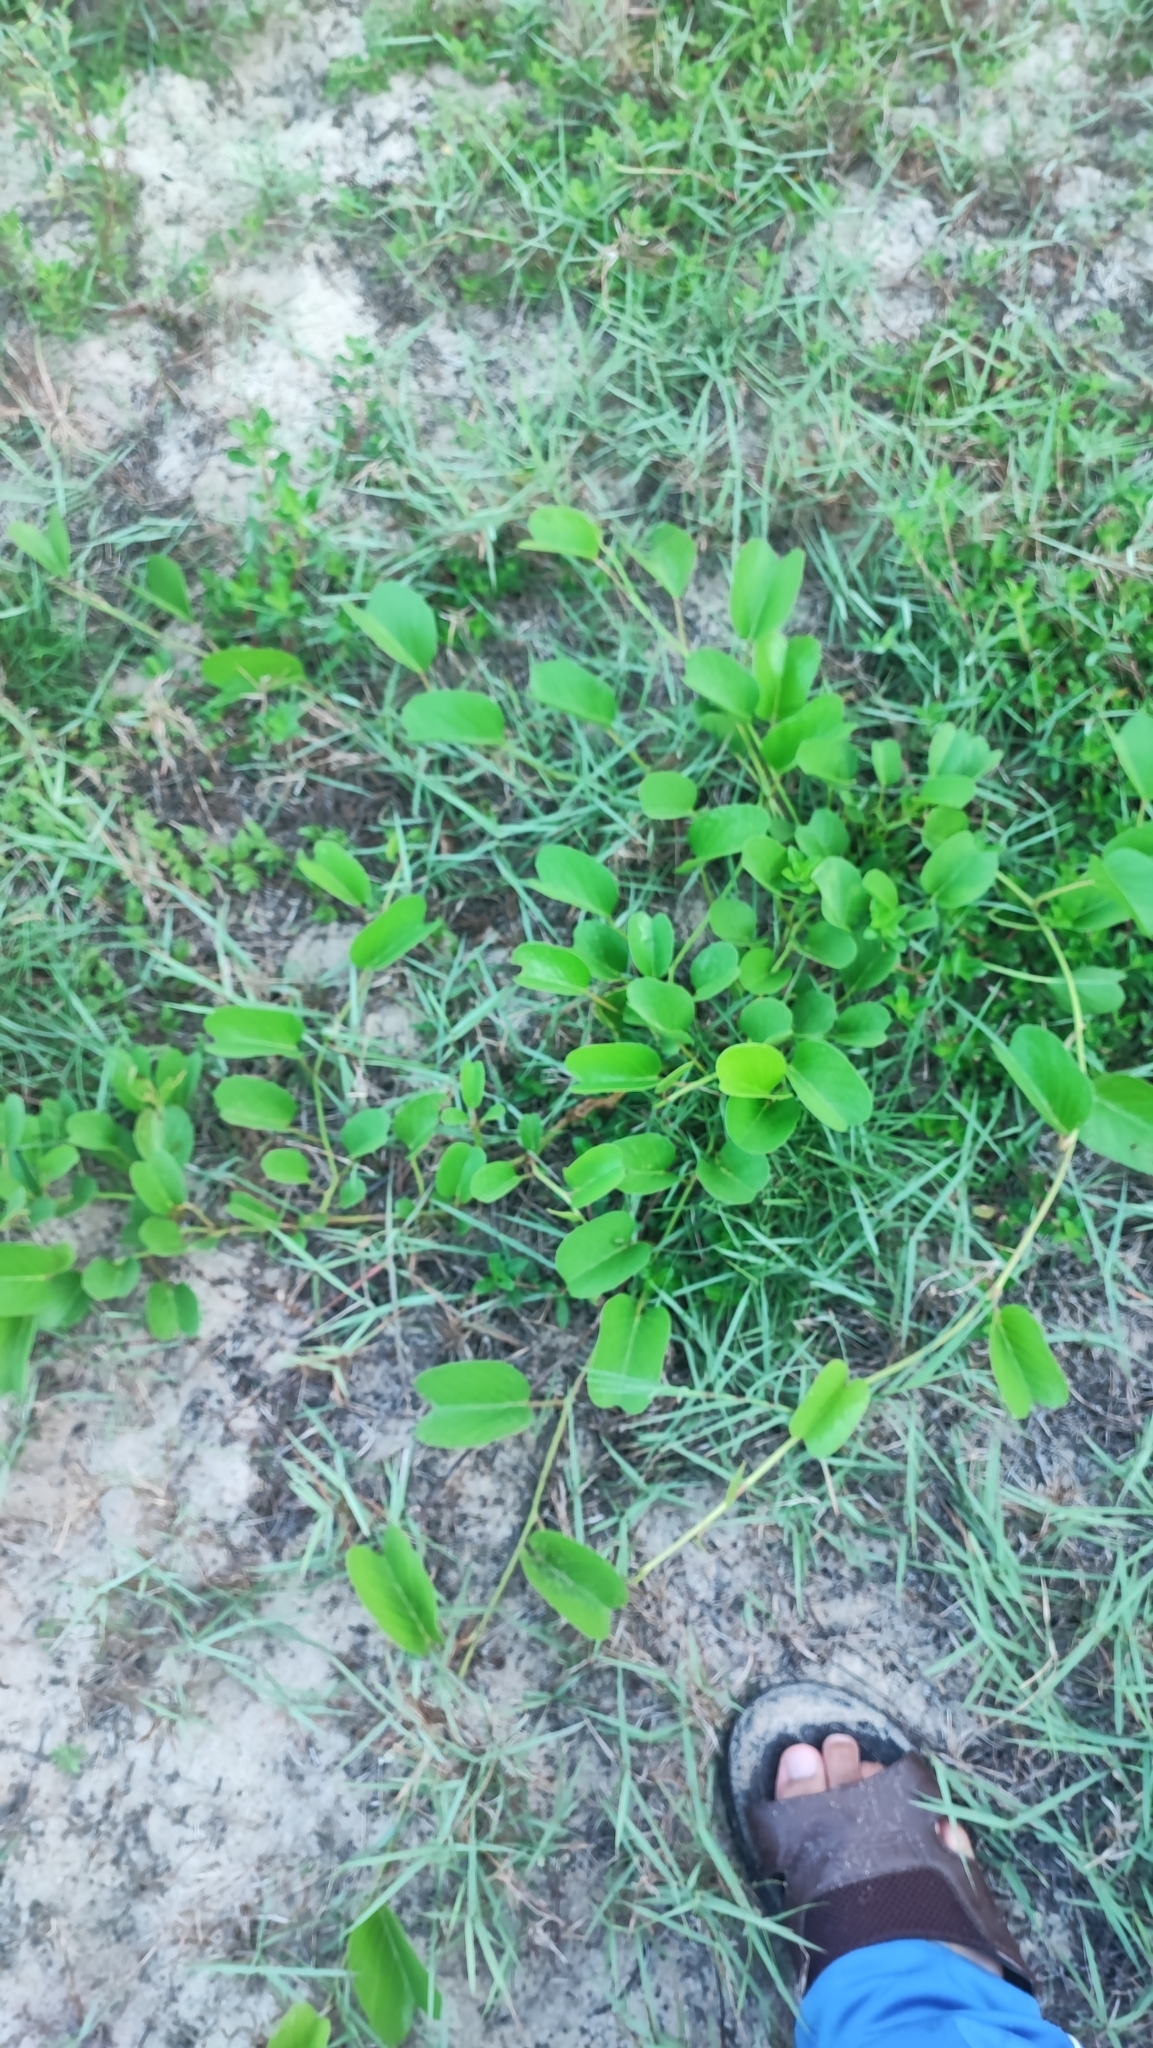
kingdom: Plantae
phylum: Tracheophyta
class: Magnoliopsida
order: Solanales
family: Convolvulaceae
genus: Ipomoea
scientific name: Ipomoea pes-caprae
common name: Beach morning glory
